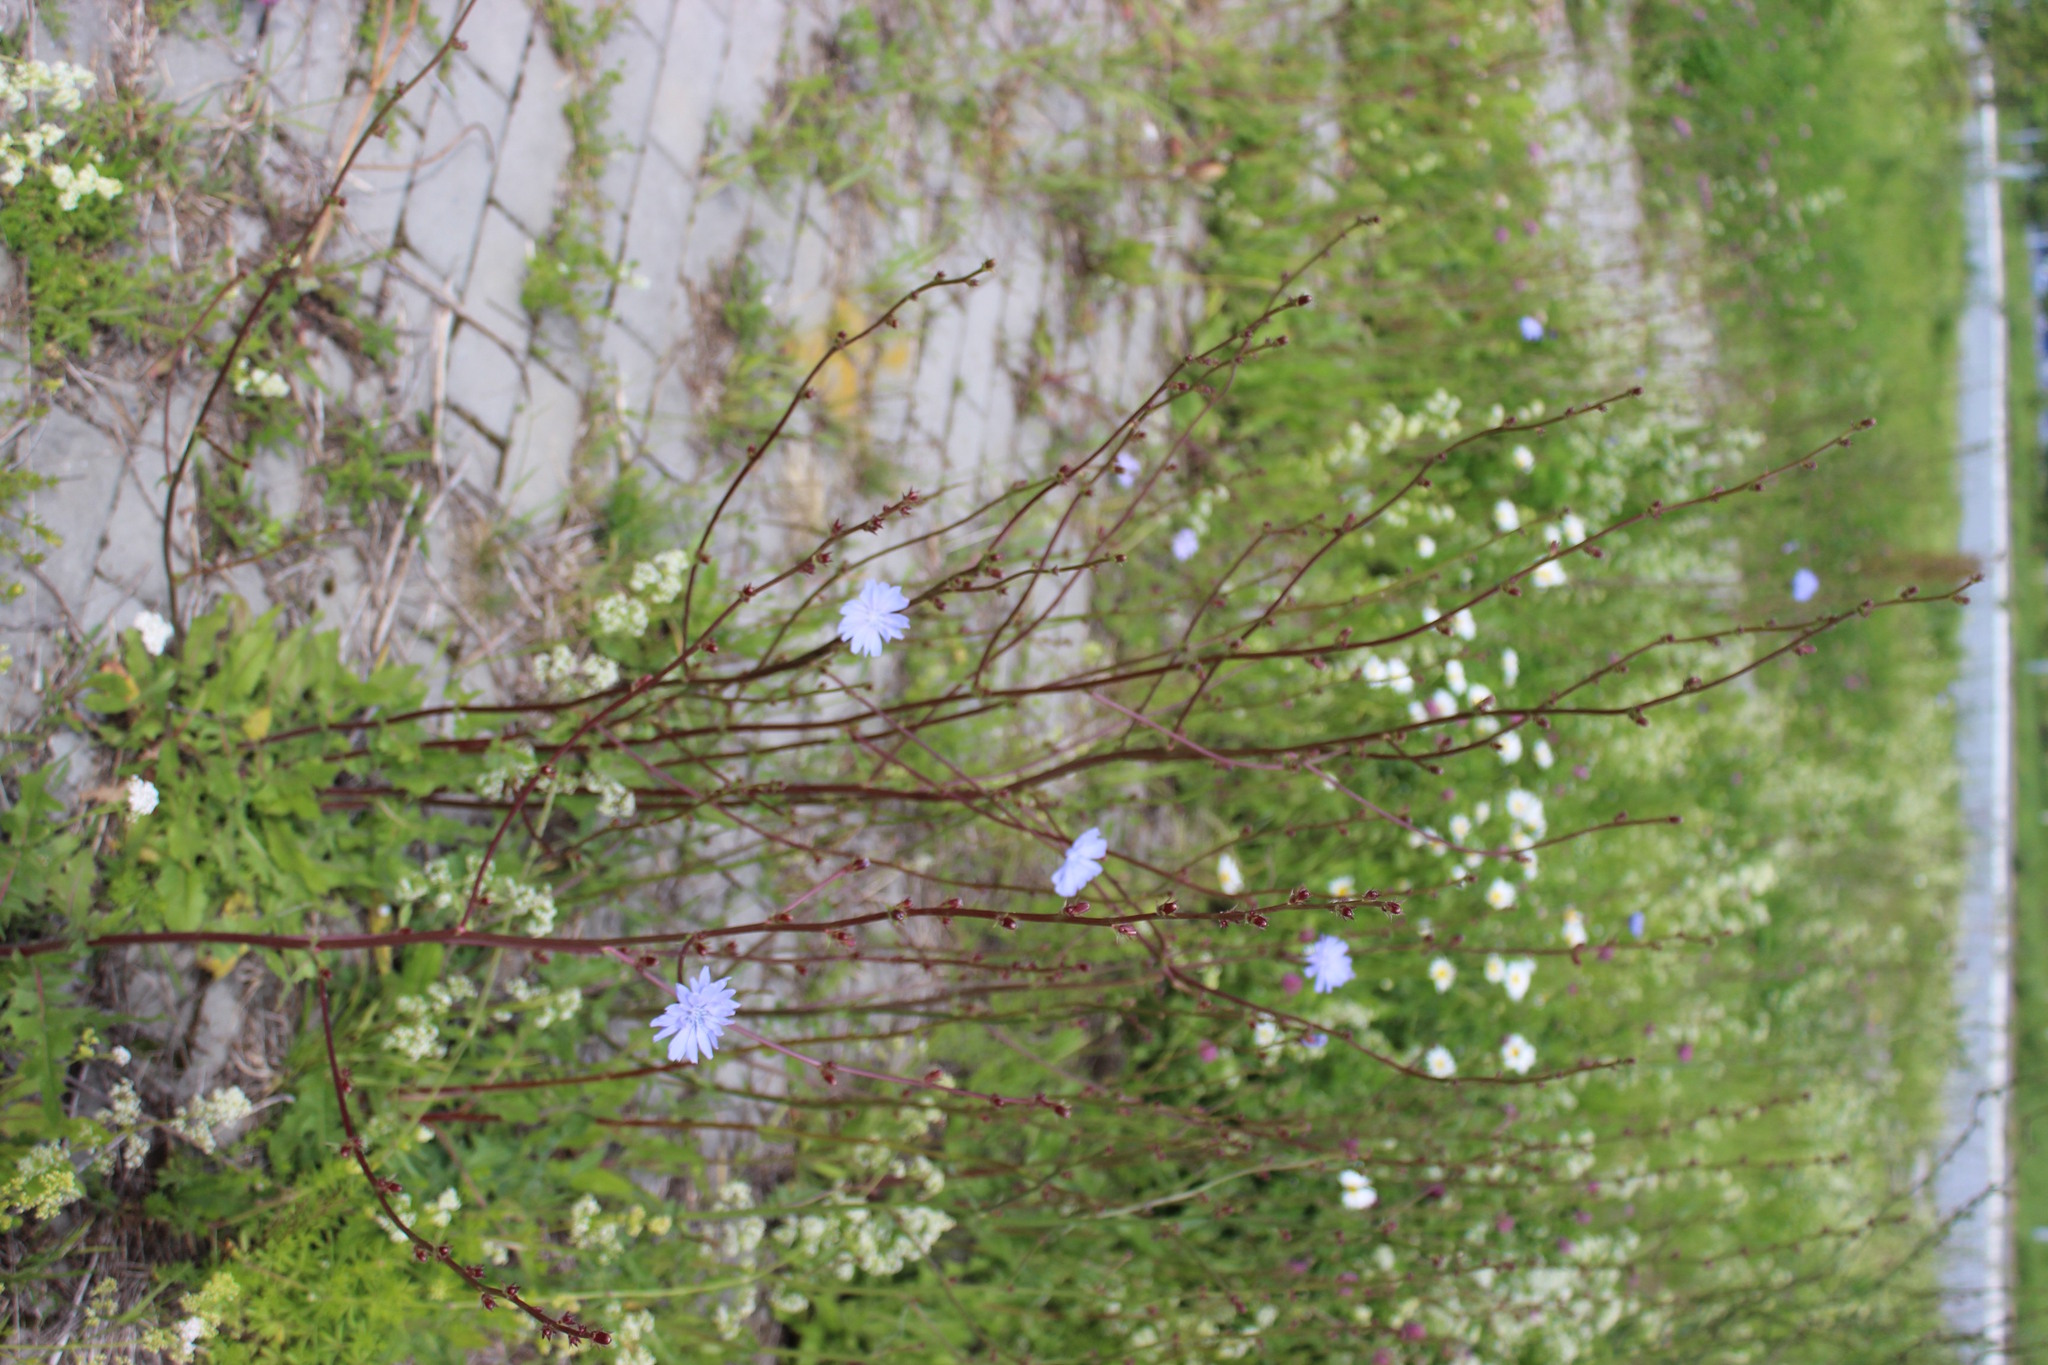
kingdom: Plantae
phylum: Tracheophyta
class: Magnoliopsida
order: Asterales
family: Asteraceae
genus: Cichorium
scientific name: Cichorium intybus
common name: Chicory
